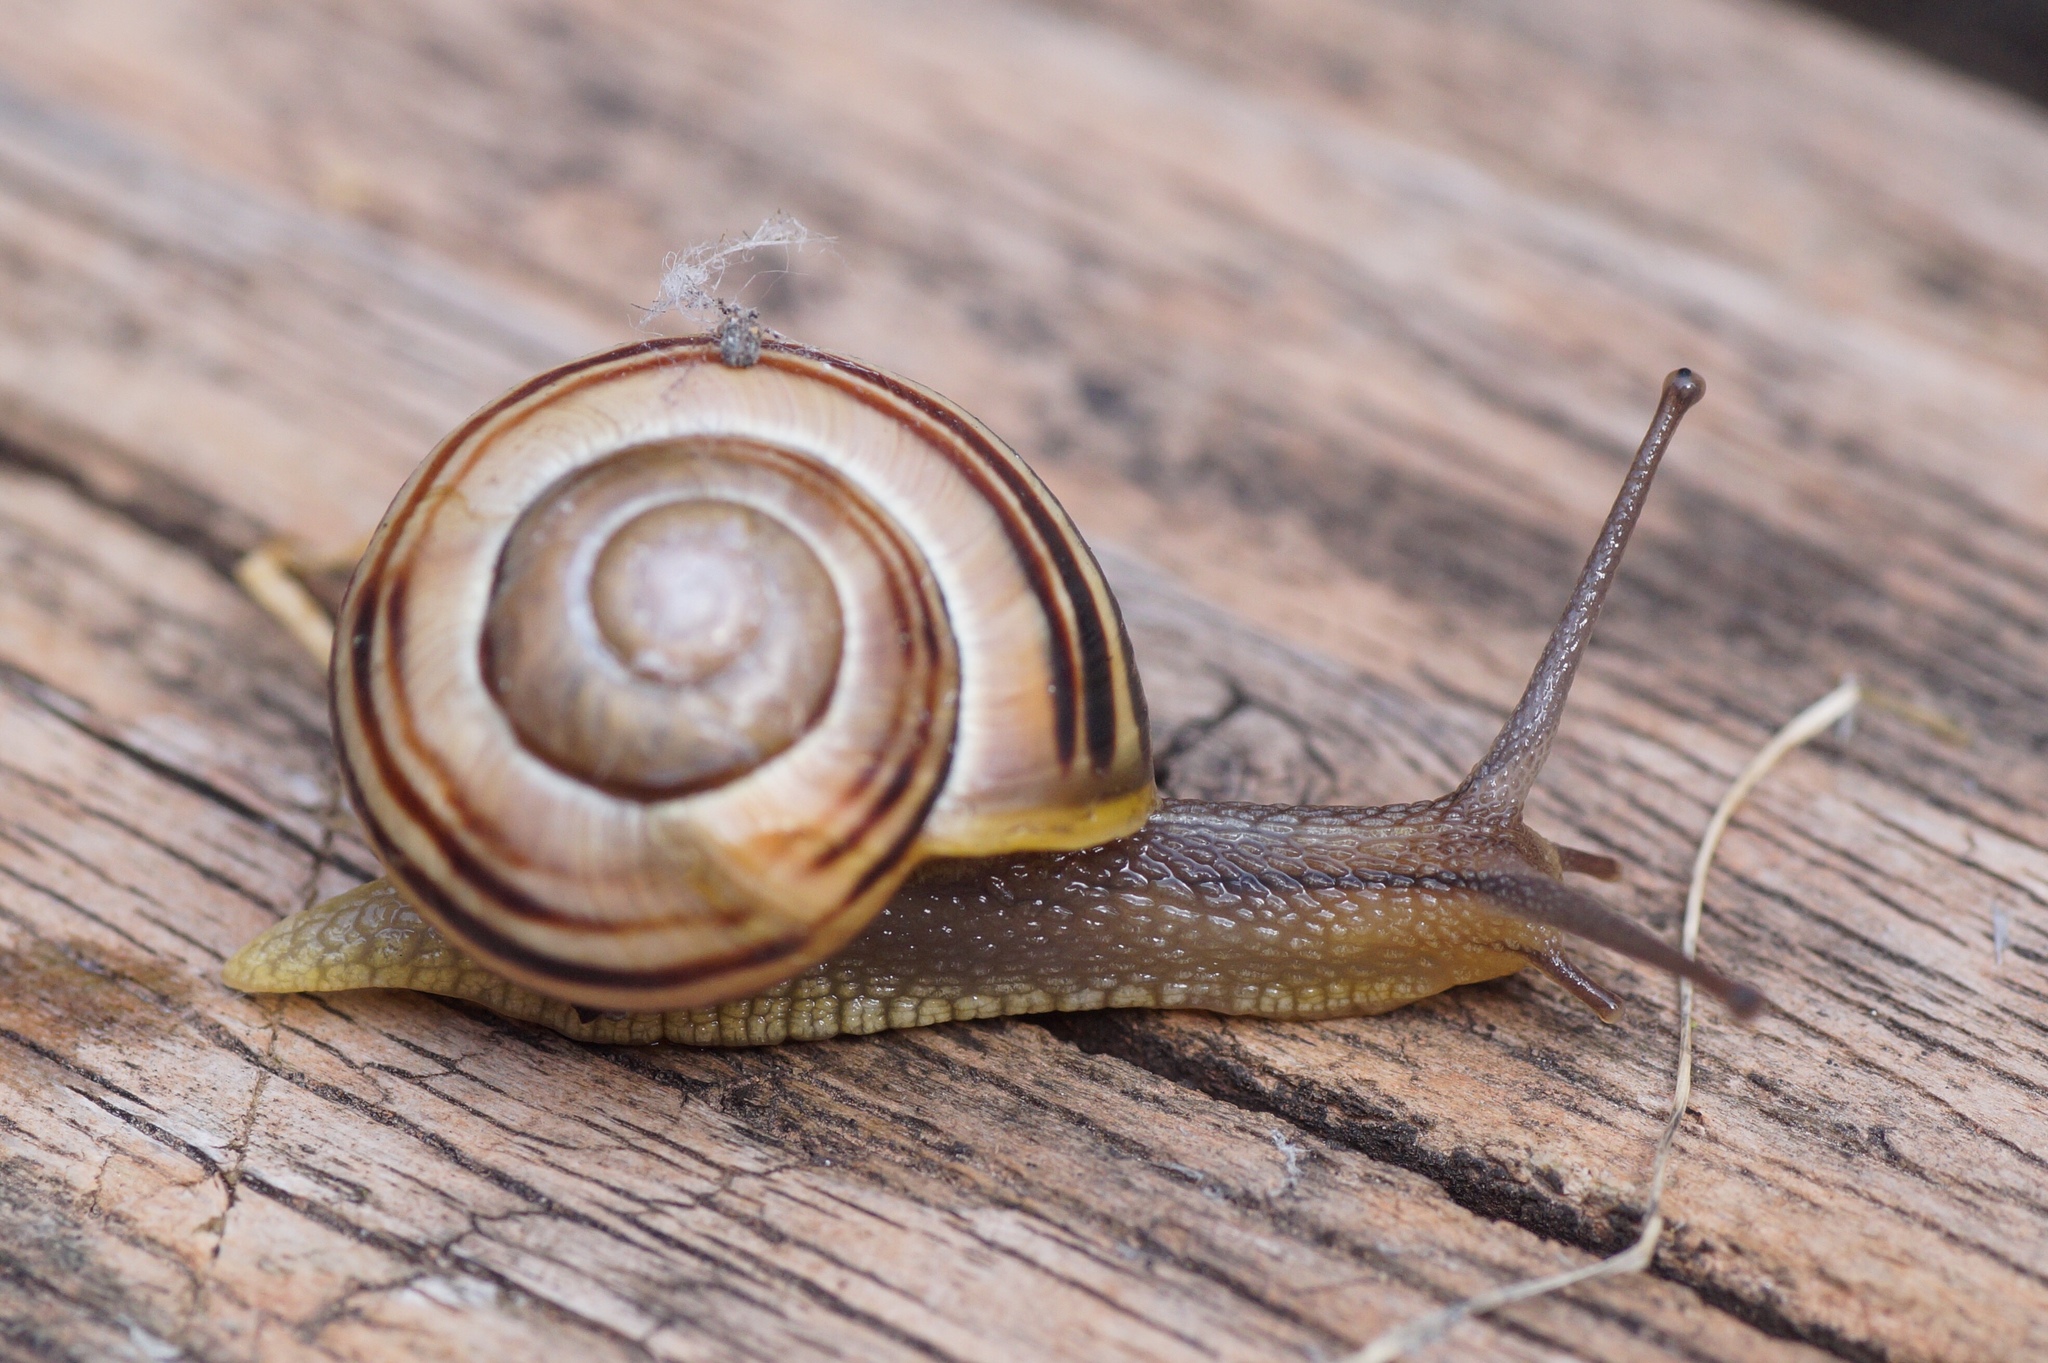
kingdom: Animalia
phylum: Mollusca
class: Gastropoda
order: Stylommatophora
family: Helicidae
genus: Cepaea
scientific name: Cepaea
